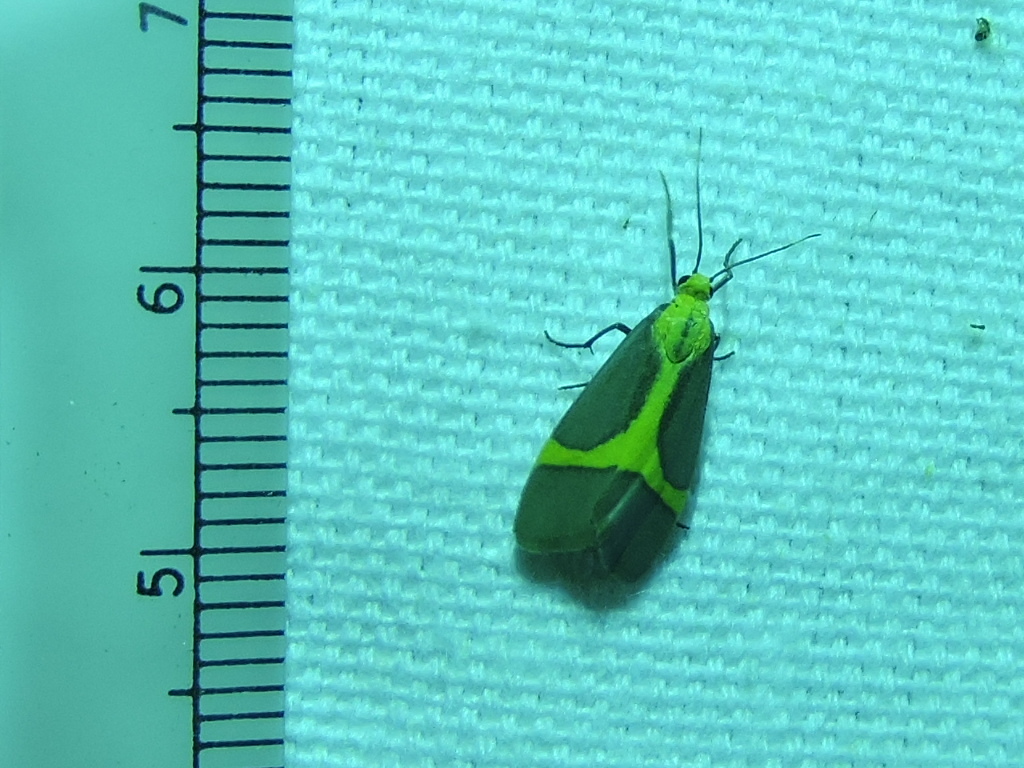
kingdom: Animalia
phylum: Arthropoda
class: Insecta
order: Lepidoptera
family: Erebidae
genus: Cisthene
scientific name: Cisthene angelus
